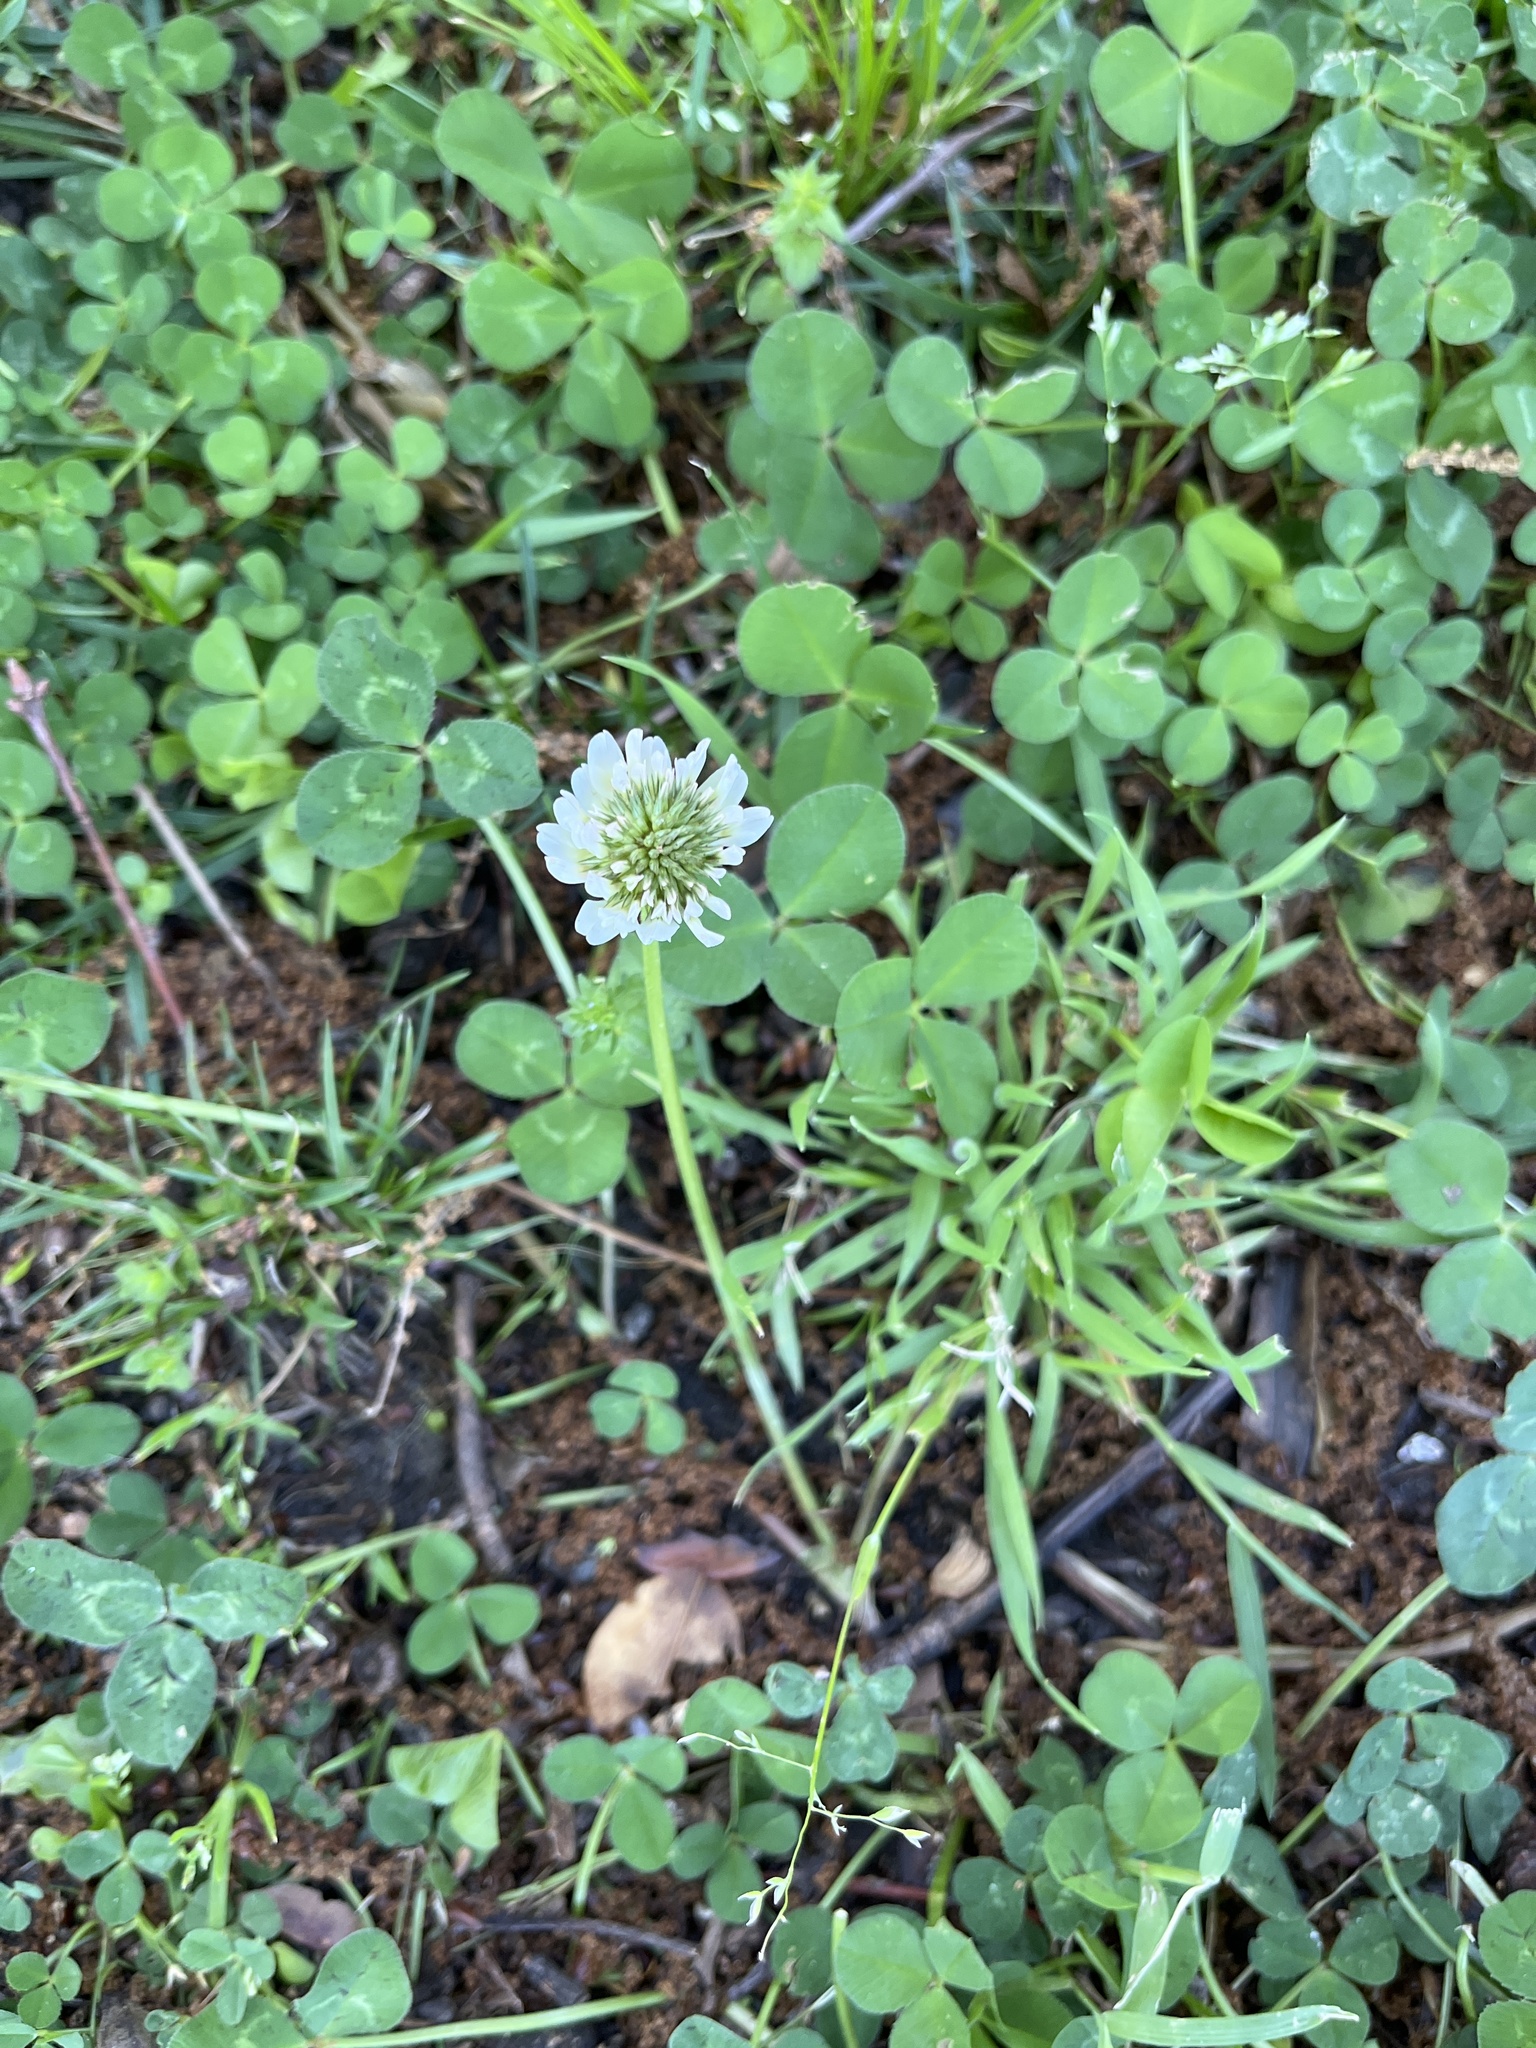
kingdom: Plantae
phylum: Tracheophyta
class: Magnoliopsida
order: Fabales
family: Fabaceae
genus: Trifolium
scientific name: Trifolium repens
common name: White clover
